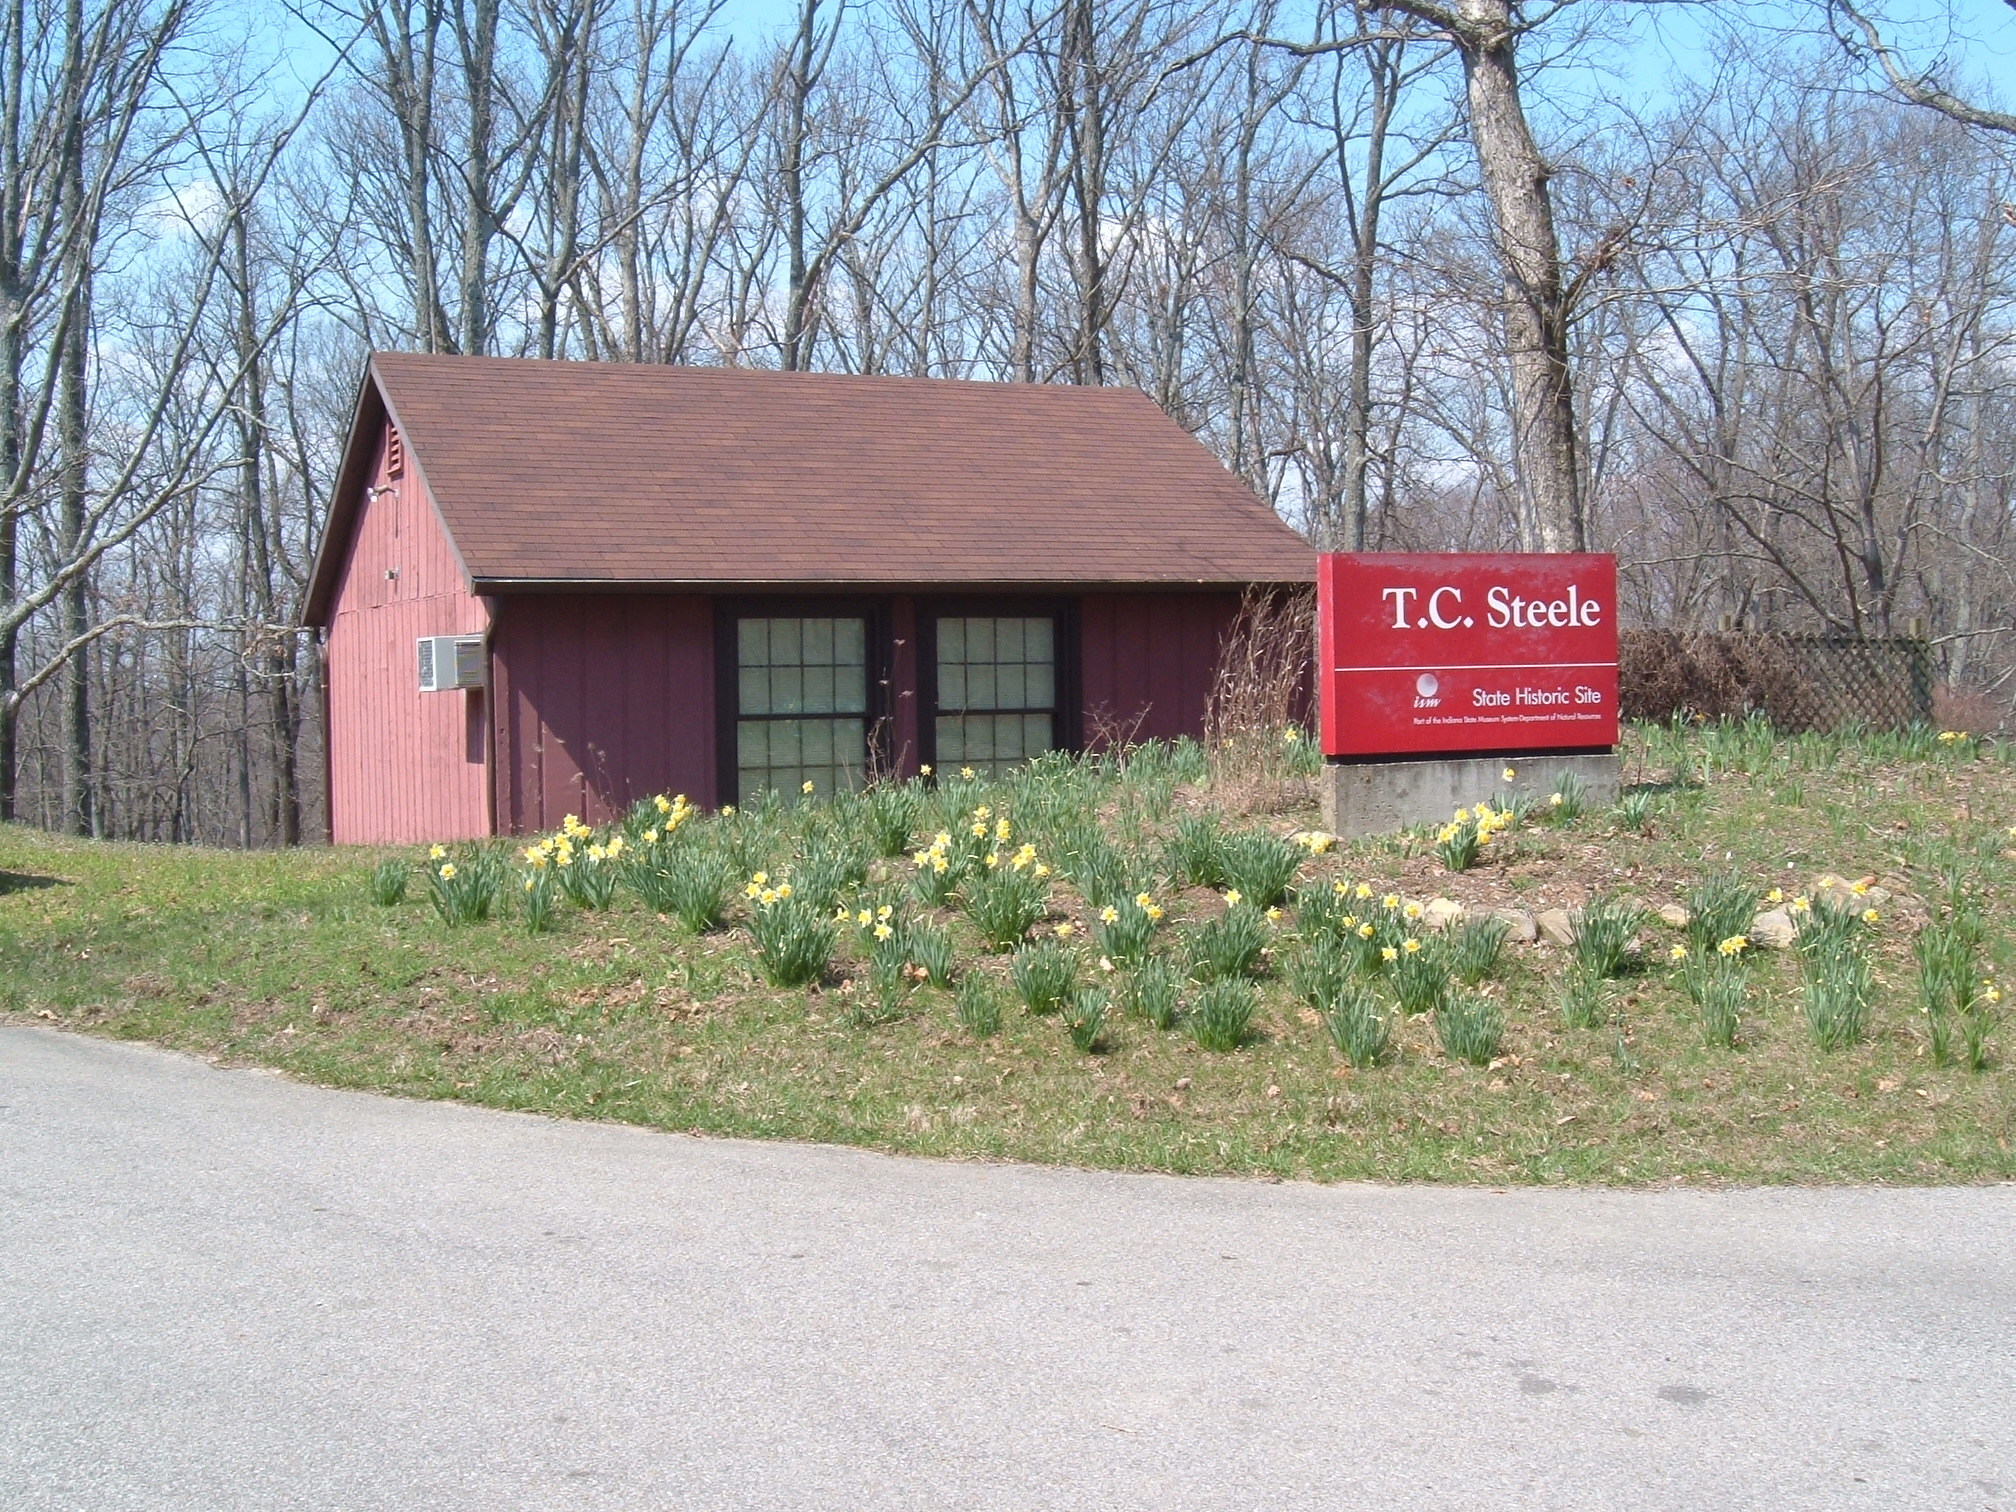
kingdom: Plantae
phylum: Tracheophyta
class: Liliopsida
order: Asparagales
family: Amaryllidaceae
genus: Narcissus
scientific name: Narcissus pseudonarcissus
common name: Daffodil
